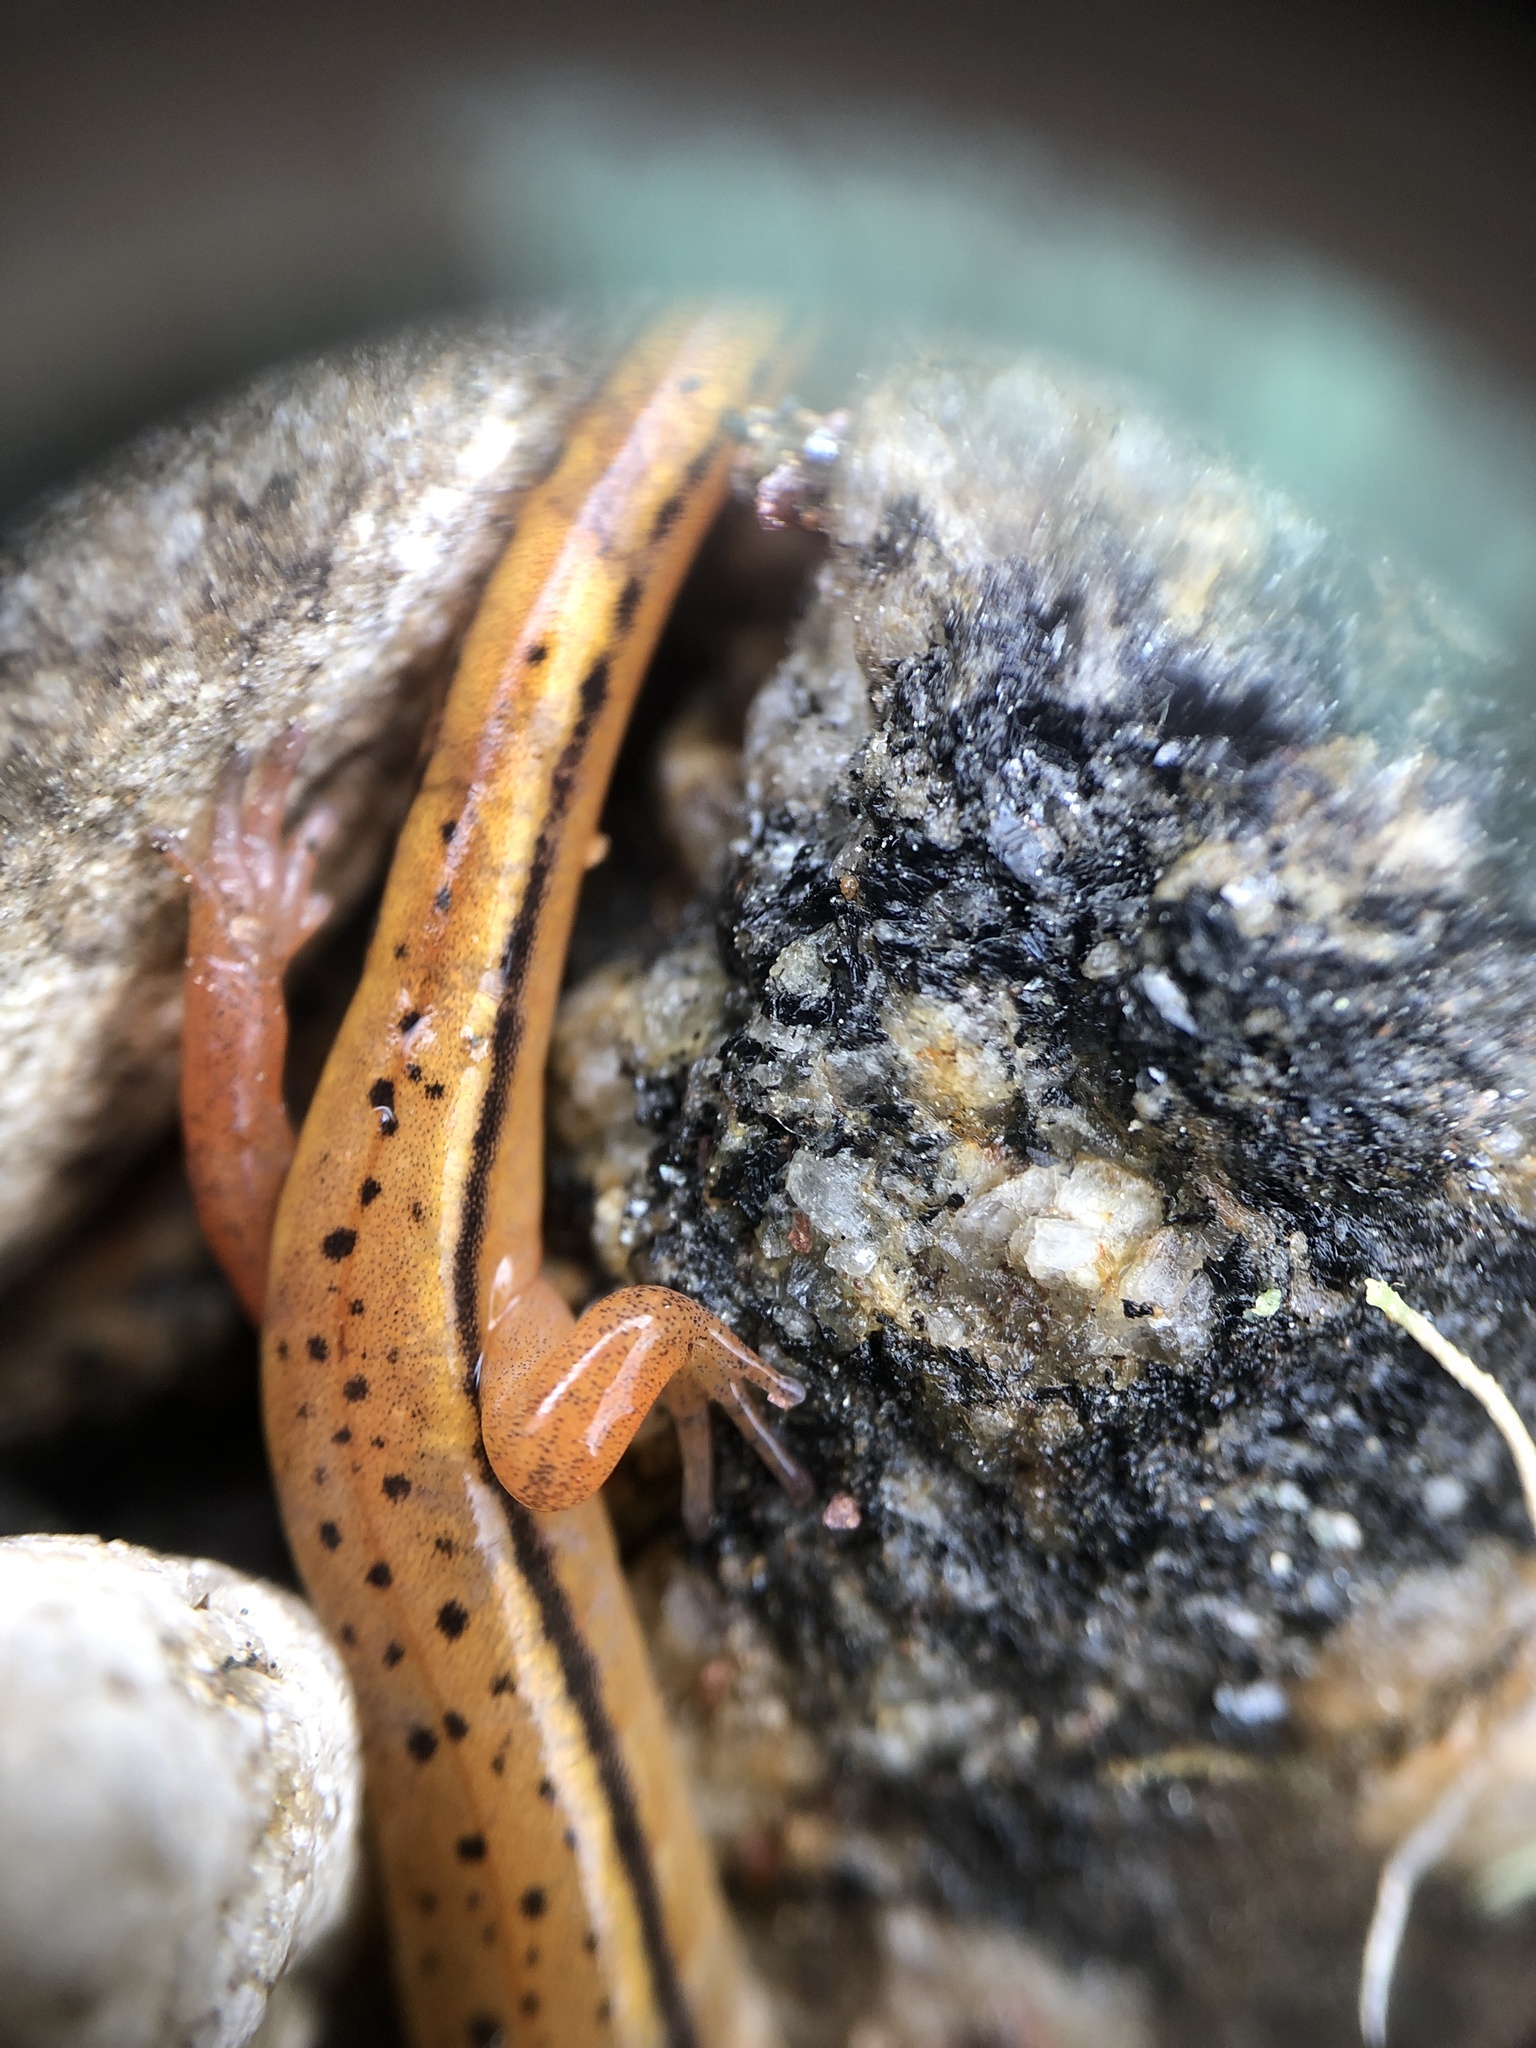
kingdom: Animalia
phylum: Chordata
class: Amphibia
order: Caudata
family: Plethodontidae
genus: Eurycea
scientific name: Eurycea wilderae
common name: Blue ridge two-lined salamander
